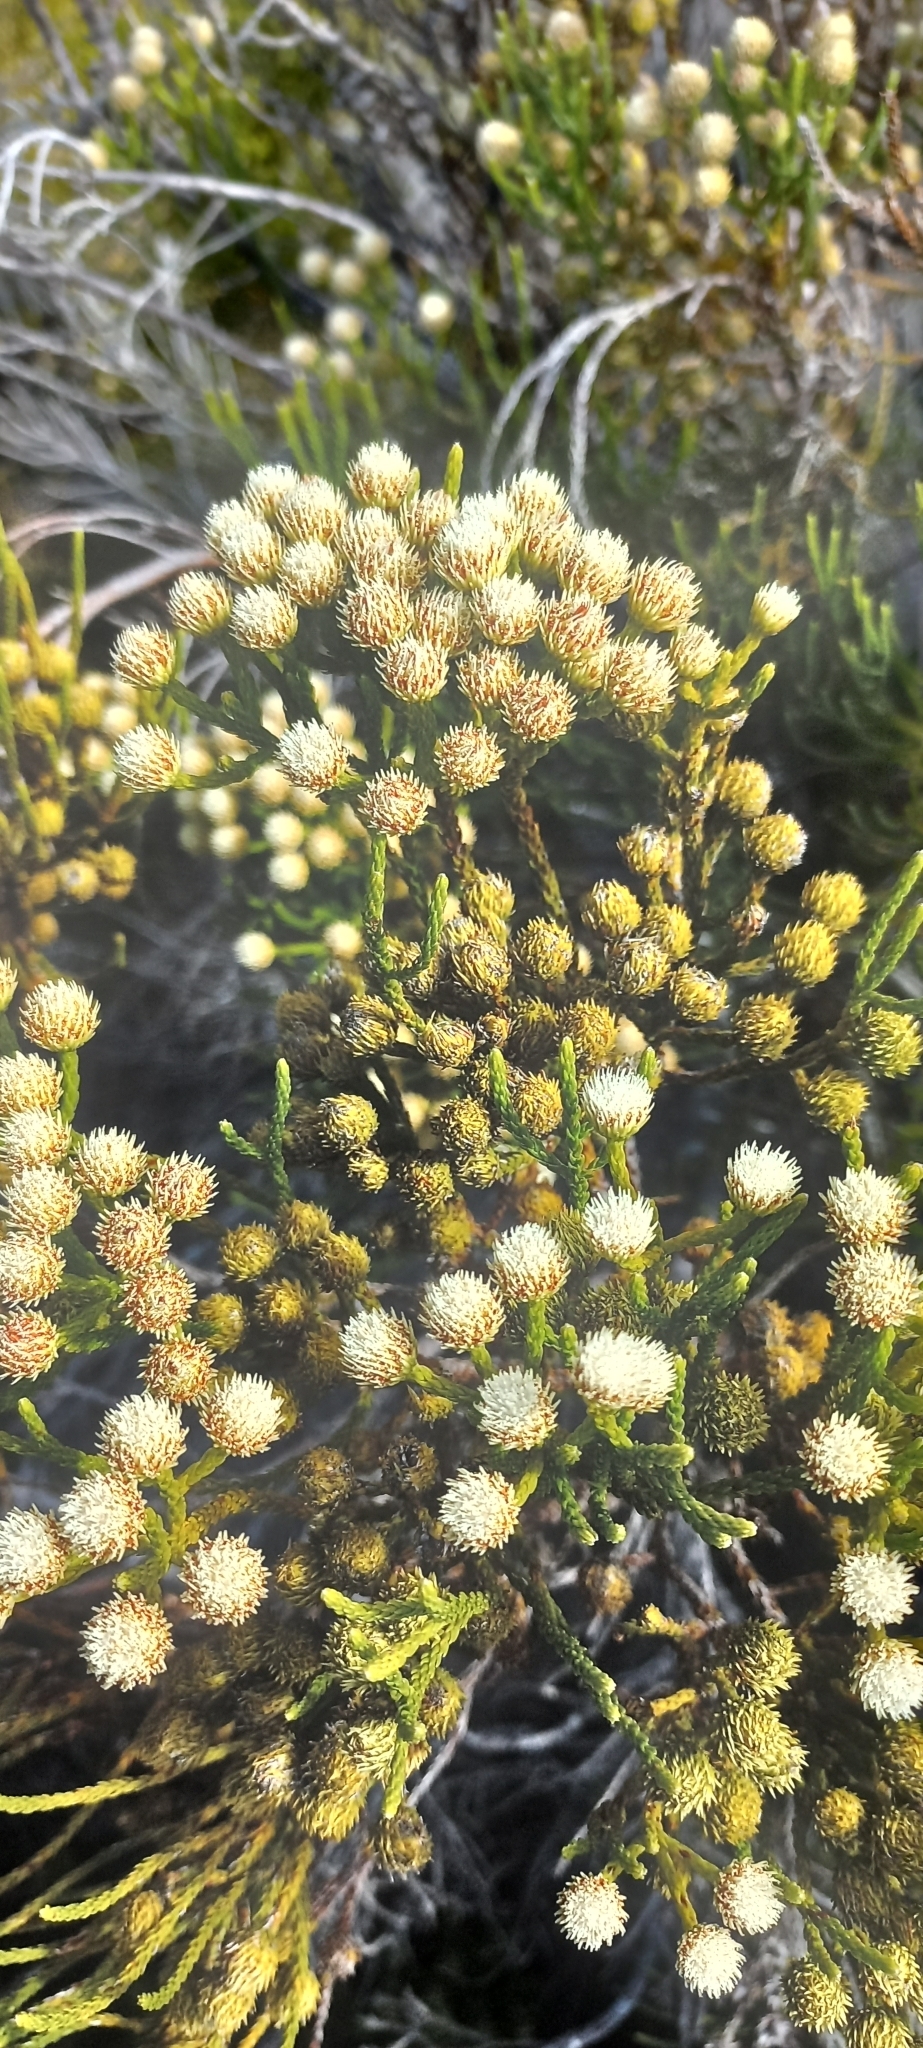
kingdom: Plantae
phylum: Tracheophyta
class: Magnoliopsida
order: Bruniales
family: Bruniaceae
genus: Brunia
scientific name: Brunia paleacea
